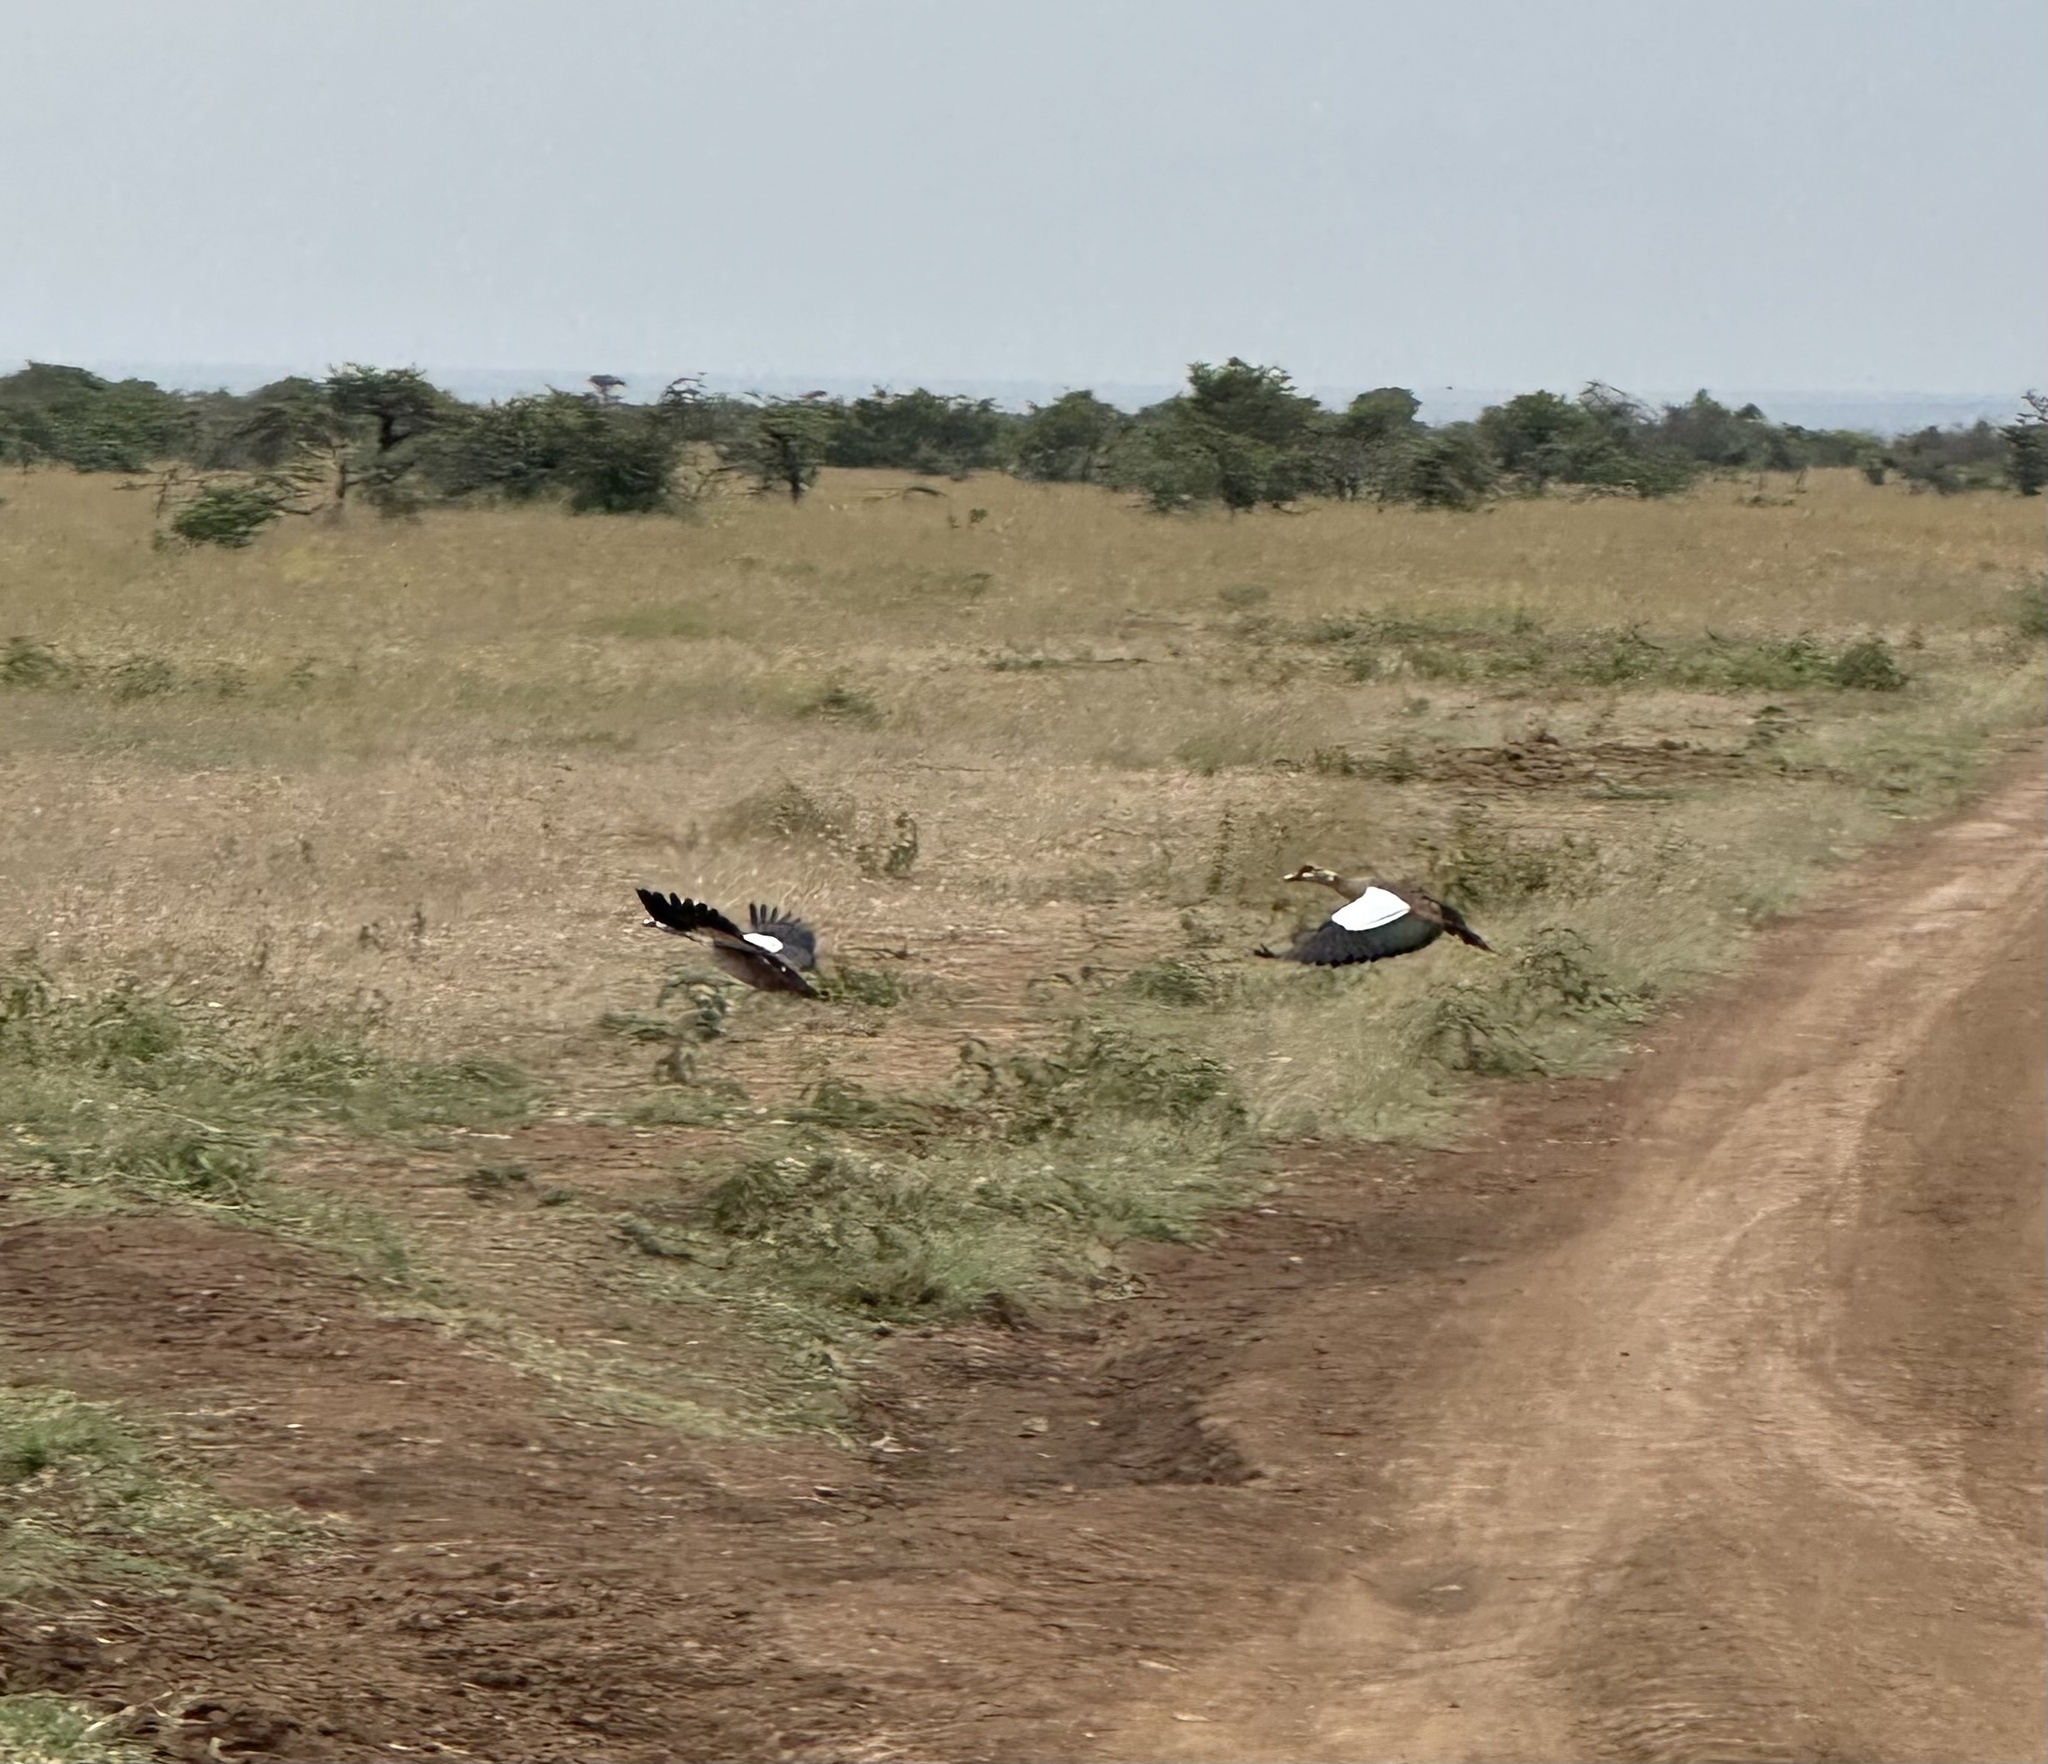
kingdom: Animalia
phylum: Chordata
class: Aves
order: Anseriformes
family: Anatidae
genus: Alopochen
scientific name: Alopochen aegyptiaca
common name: Egyptian goose
